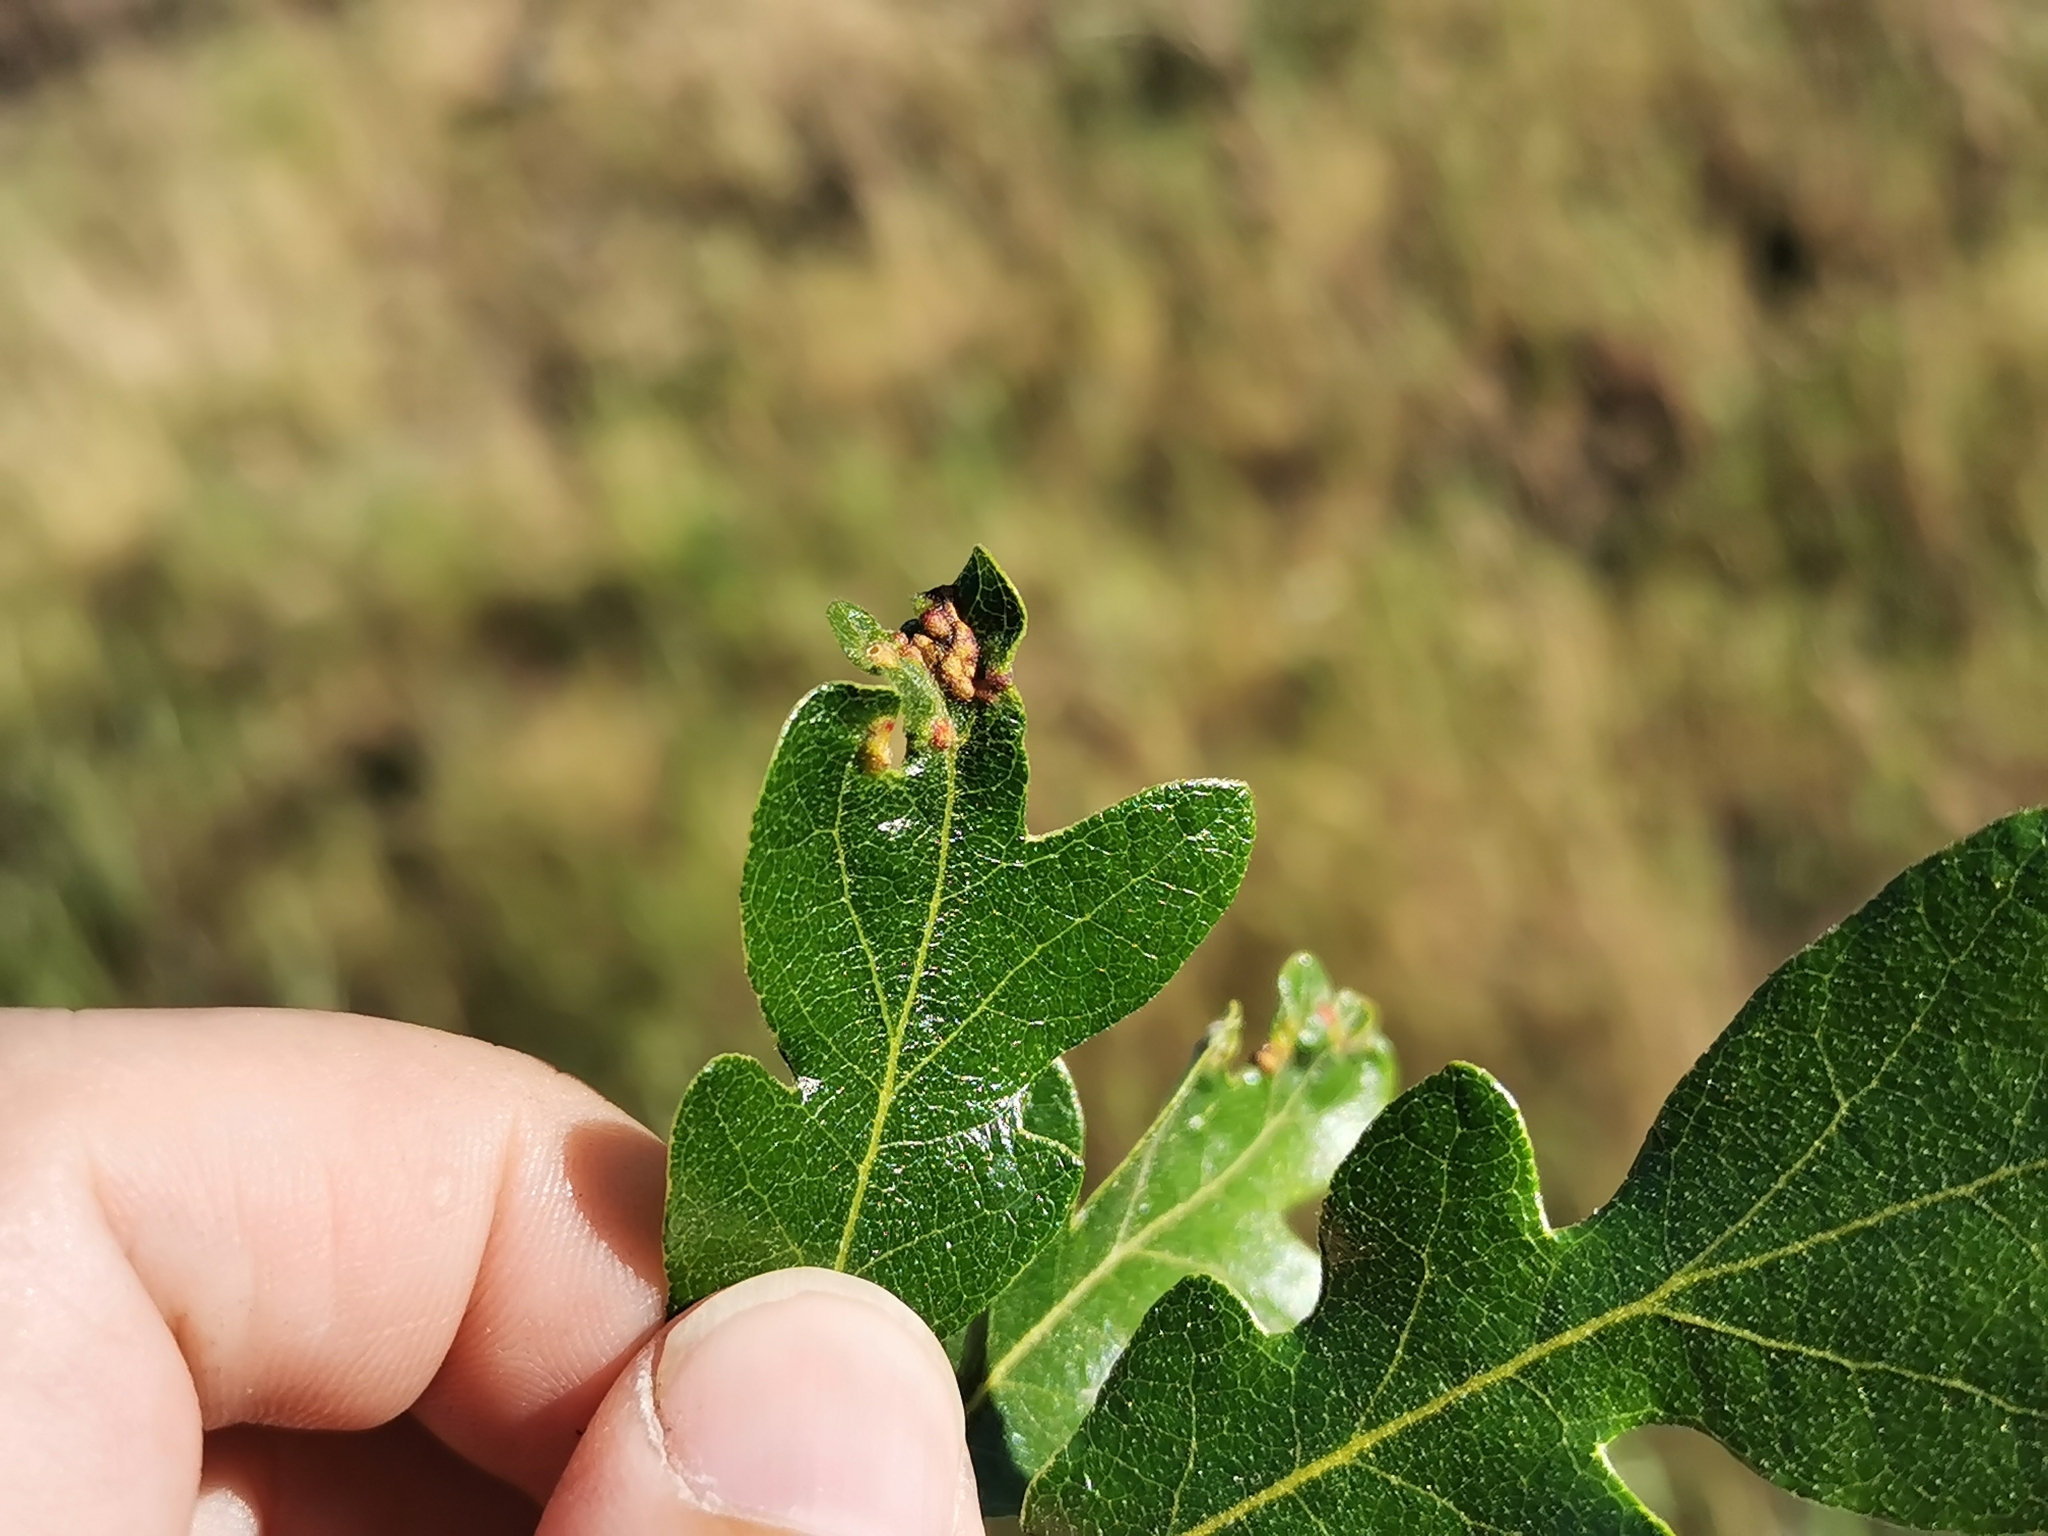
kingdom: Animalia
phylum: Arthropoda
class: Insecta
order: Hymenoptera
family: Cynipidae
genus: Neuroterus
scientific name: Neuroterus saltarius
